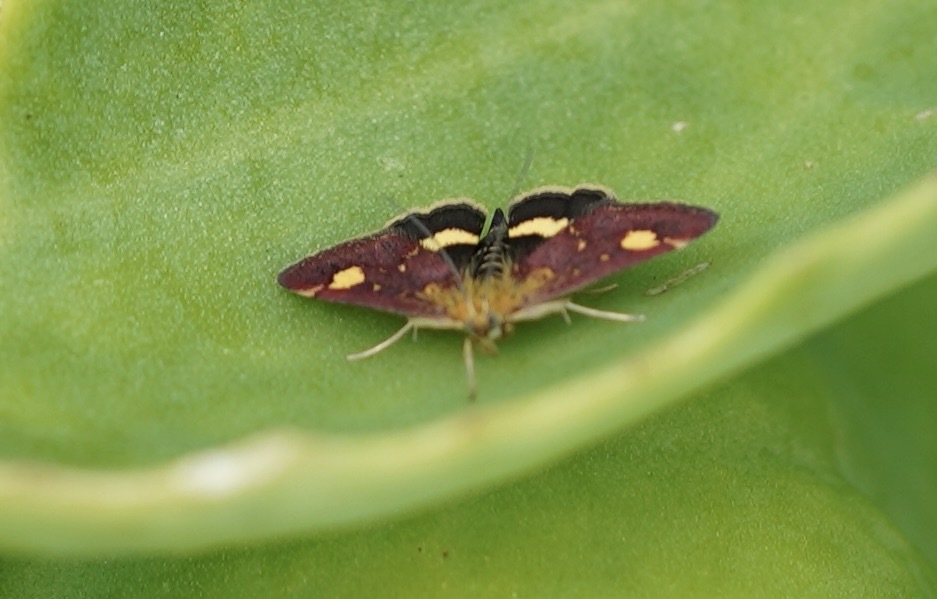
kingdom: Animalia
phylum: Arthropoda
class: Insecta
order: Lepidoptera
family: Crambidae
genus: Pyrausta
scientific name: Pyrausta aurata
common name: Small purple & gold
